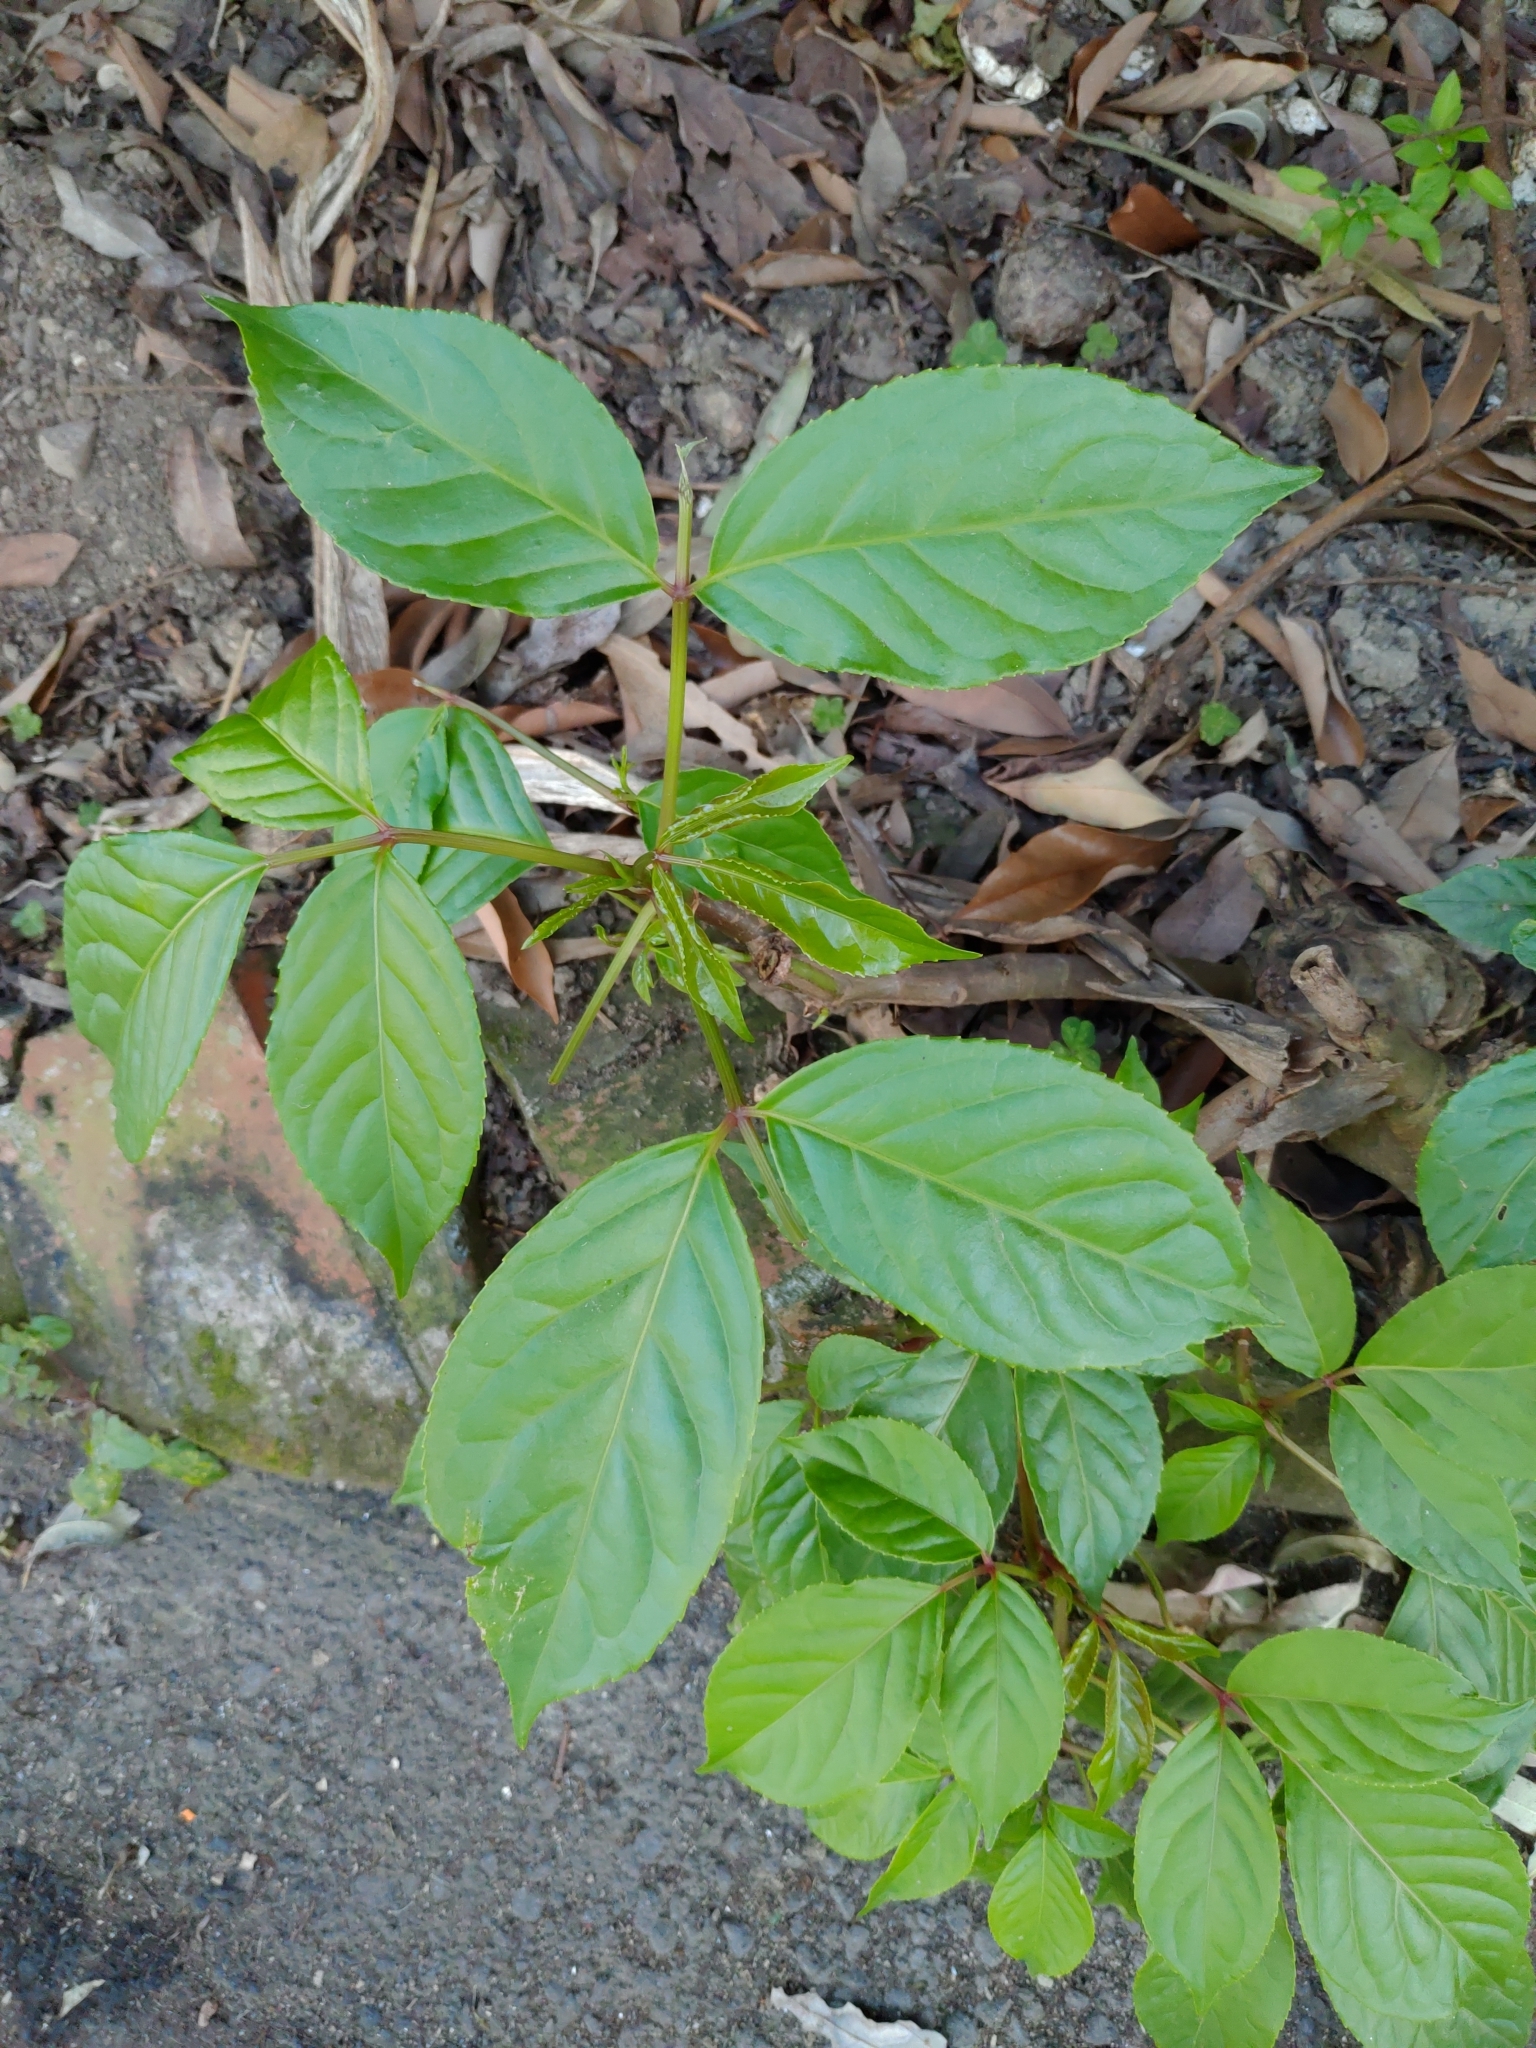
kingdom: Plantae
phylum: Tracheophyta
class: Magnoliopsida
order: Malpighiales
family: Phyllanthaceae
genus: Bischofia
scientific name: Bischofia javanica
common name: Javanese bishopwood
